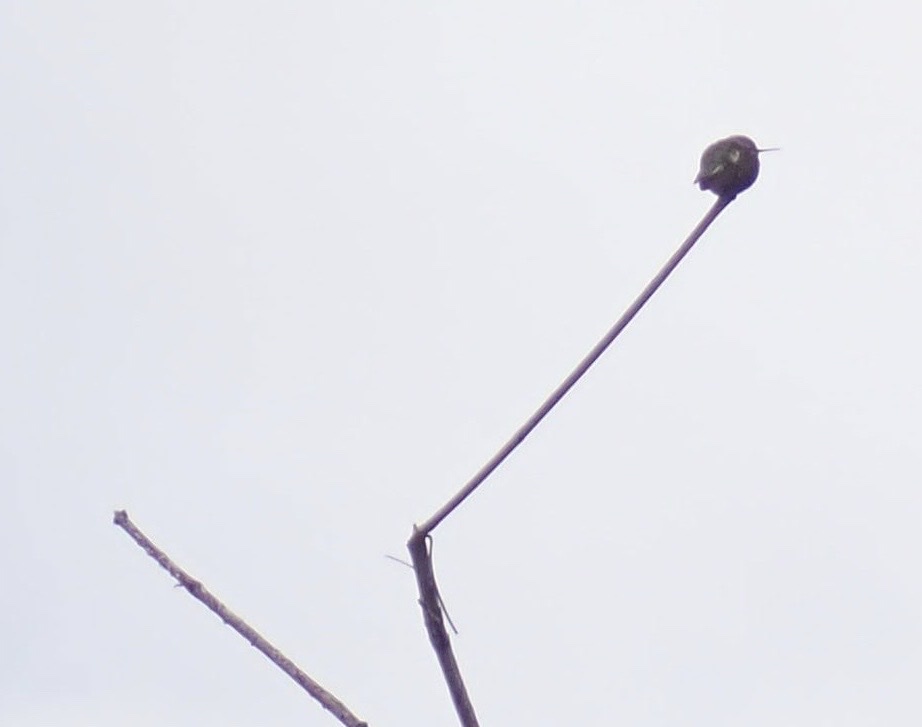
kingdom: Animalia
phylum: Chordata
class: Aves
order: Apodiformes
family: Trochilidae
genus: Calypte
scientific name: Calypte anna
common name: Anna's hummingbird
